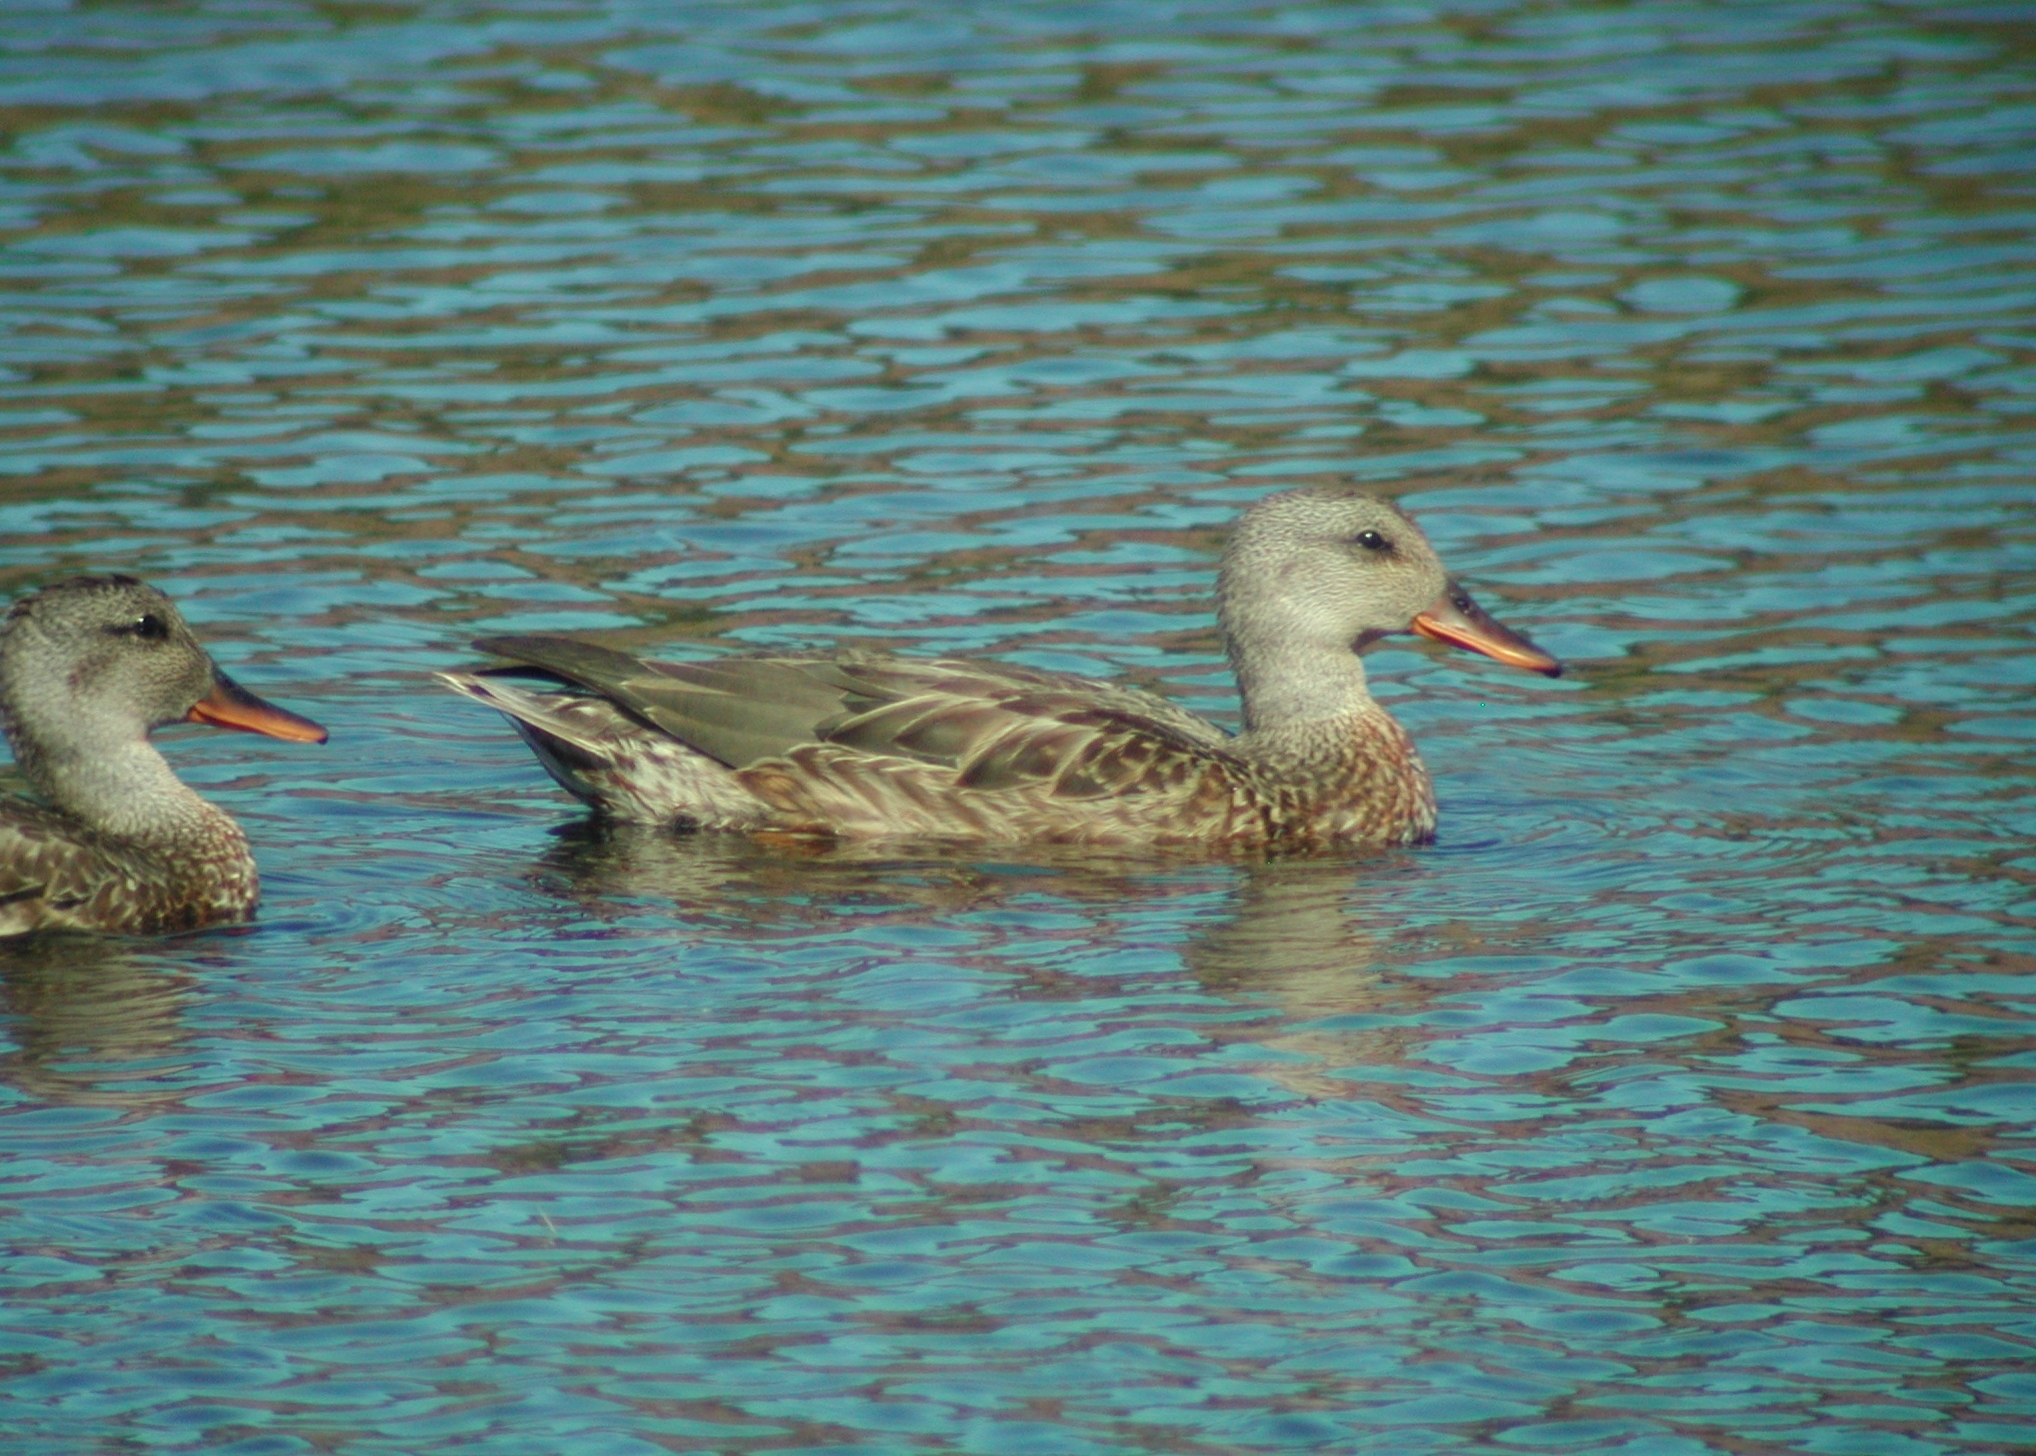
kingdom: Animalia
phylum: Chordata
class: Aves
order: Anseriformes
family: Anatidae
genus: Mareca
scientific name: Mareca strepera
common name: Gadwall
